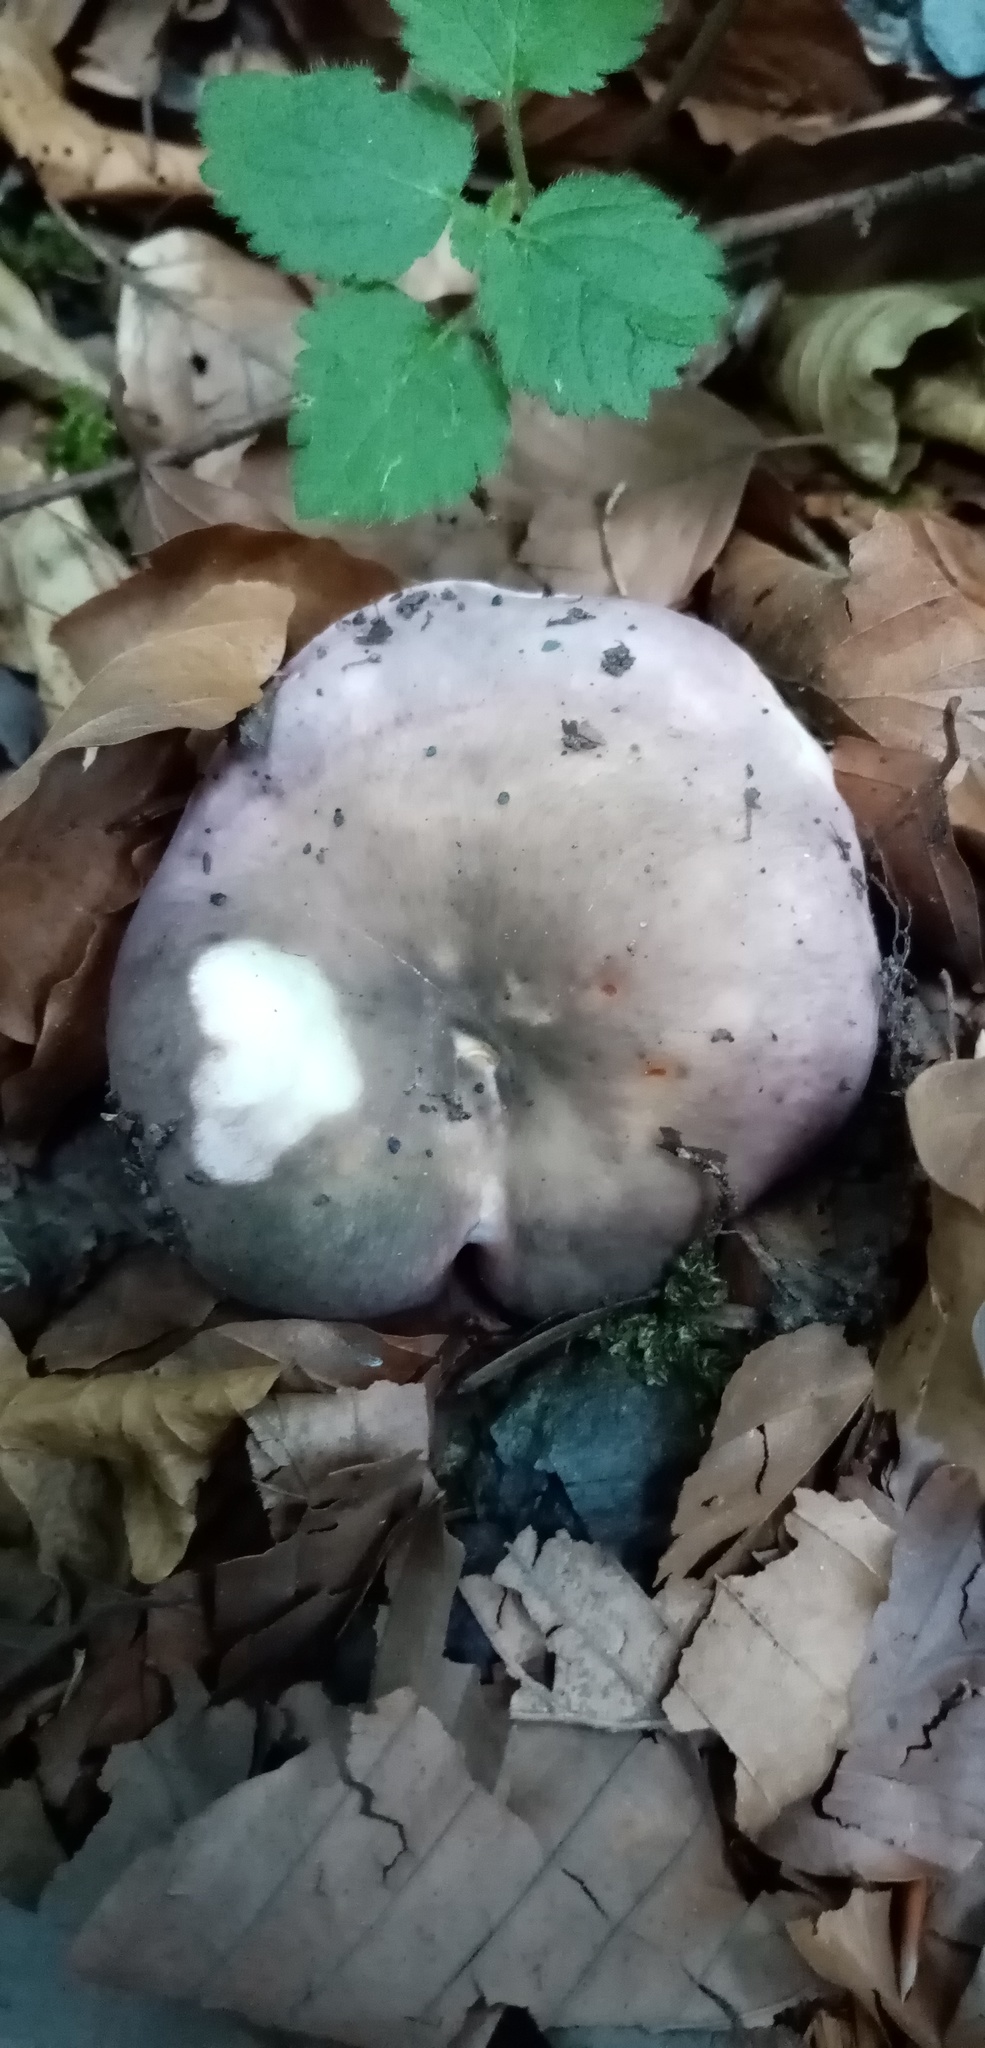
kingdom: Fungi
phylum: Basidiomycota
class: Agaricomycetes
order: Russulales
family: Russulaceae
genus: Russula
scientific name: Russula cyanoxantha
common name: Charcoal burner
